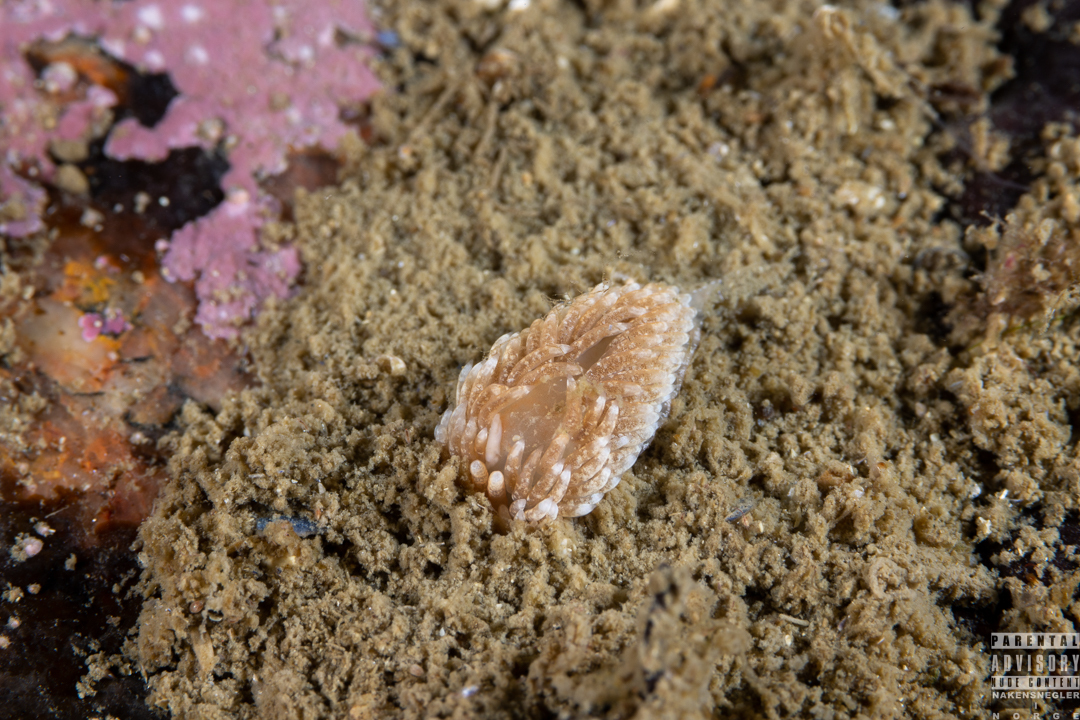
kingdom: Animalia
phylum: Mollusca
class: Gastropoda
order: Nudibranchia
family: Aeolidiidae
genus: Aeolidiella
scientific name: Aeolidiella glauca
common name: Orange-brown aeolid
